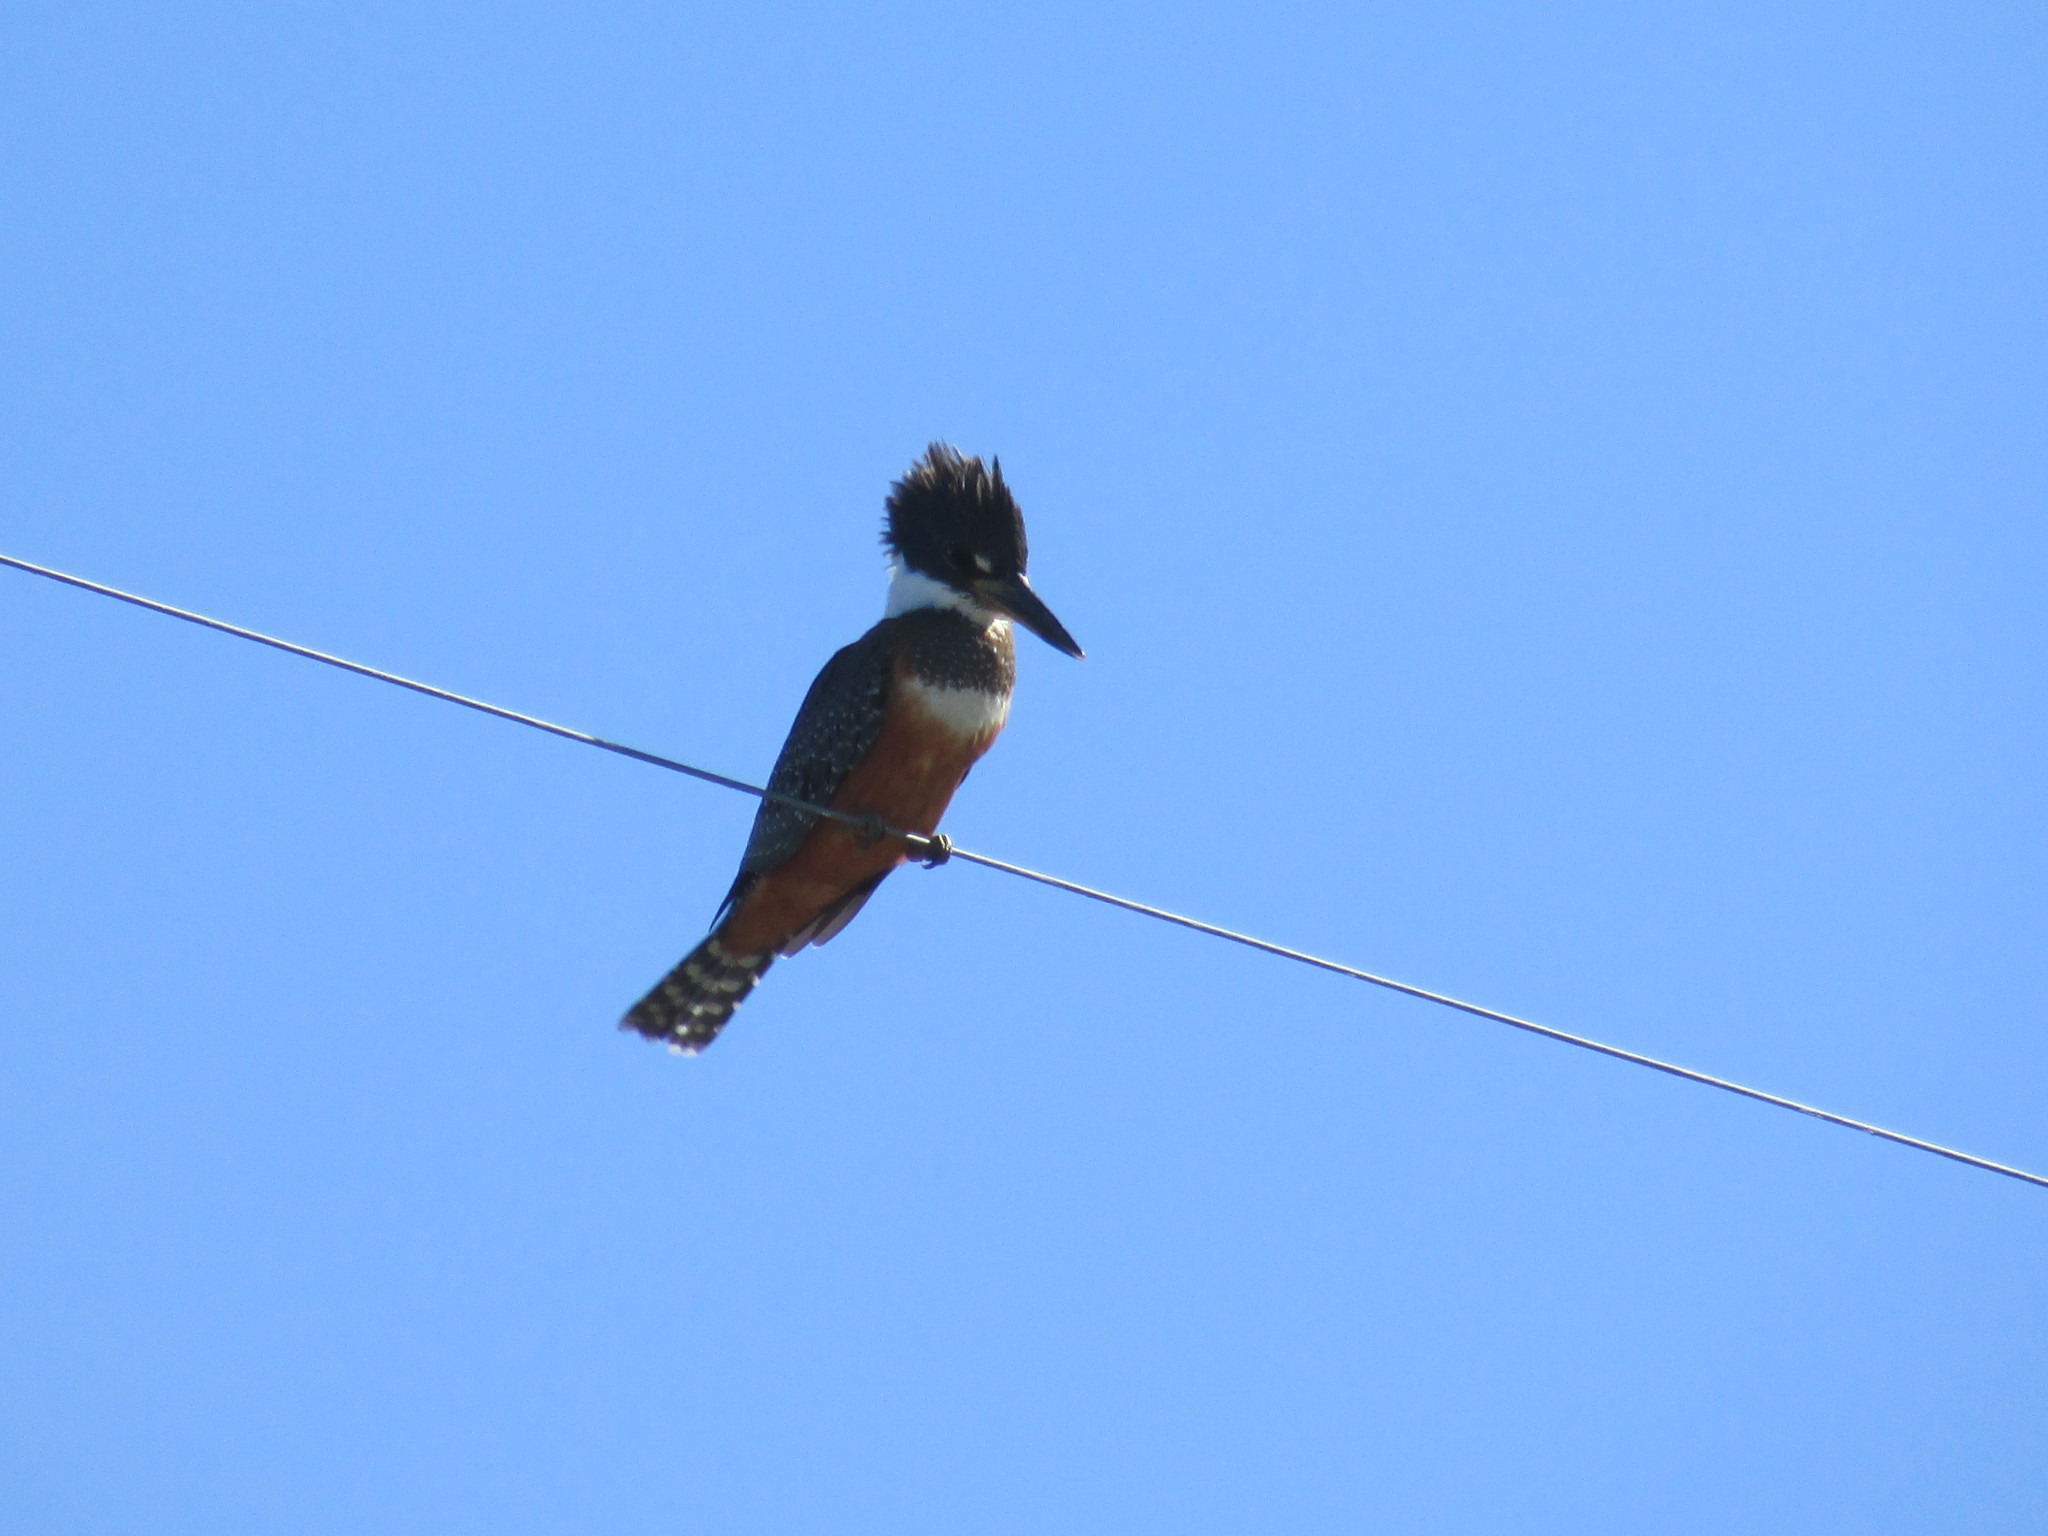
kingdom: Animalia
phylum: Chordata
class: Aves
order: Coraciiformes
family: Alcedinidae
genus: Megaceryle
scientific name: Megaceryle torquata
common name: Ringed kingfisher
